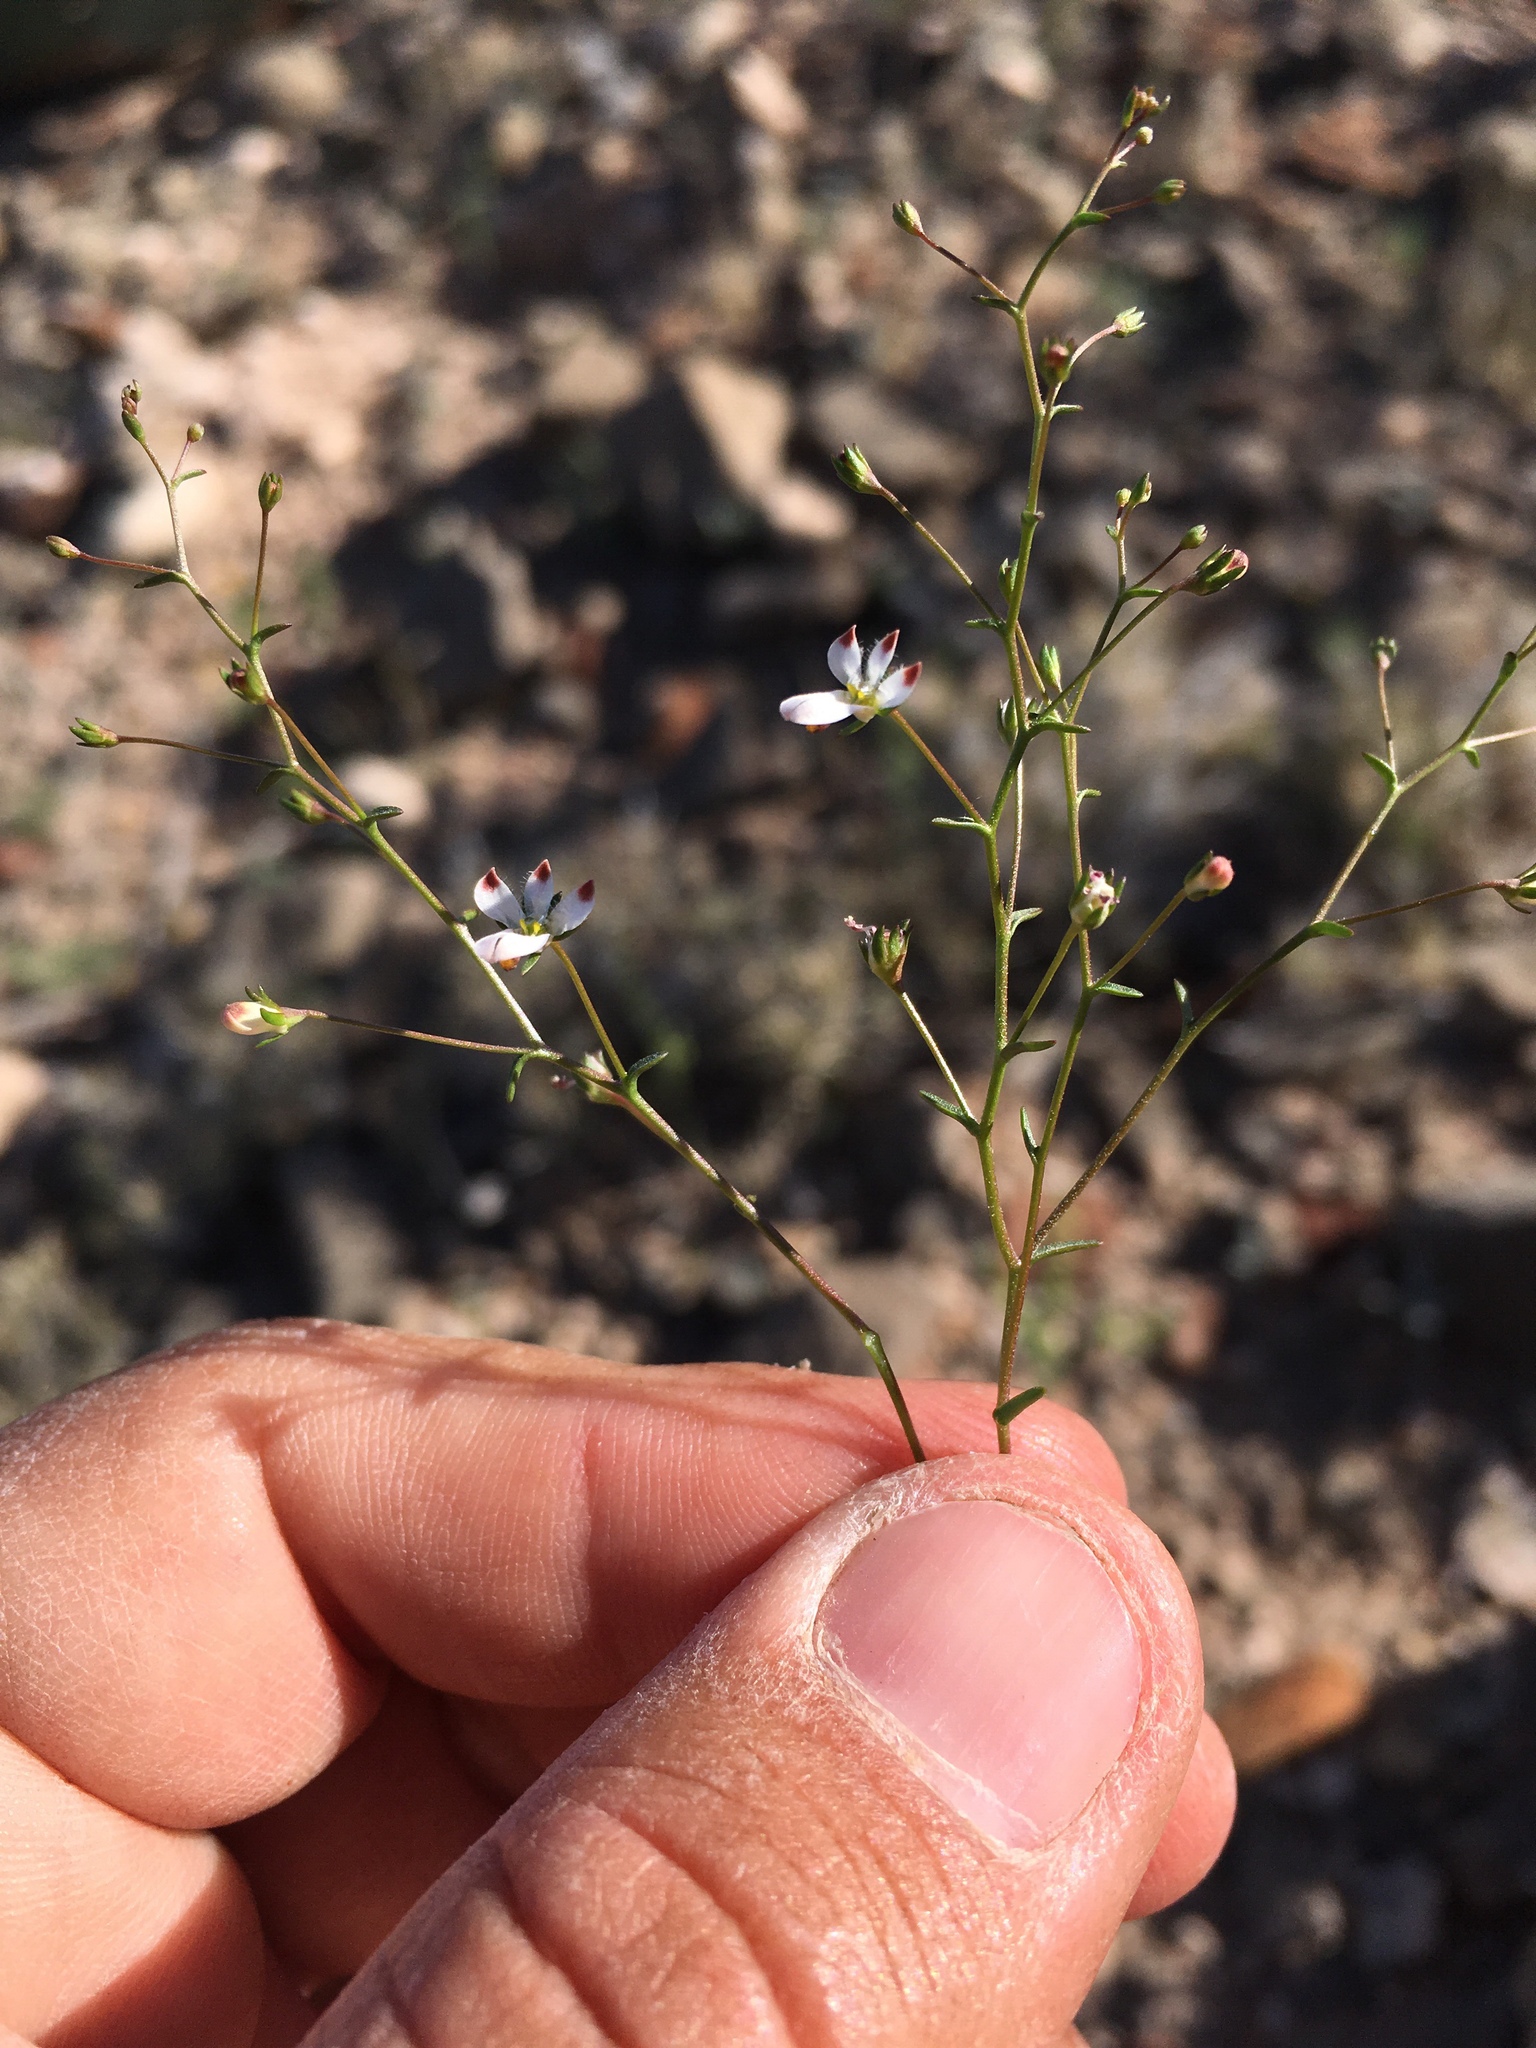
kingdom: Plantae
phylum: Tracheophyta
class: Magnoliopsida
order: Asterales
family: Campanulaceae
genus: Nemacladus
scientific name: Nemacladus orientalis
